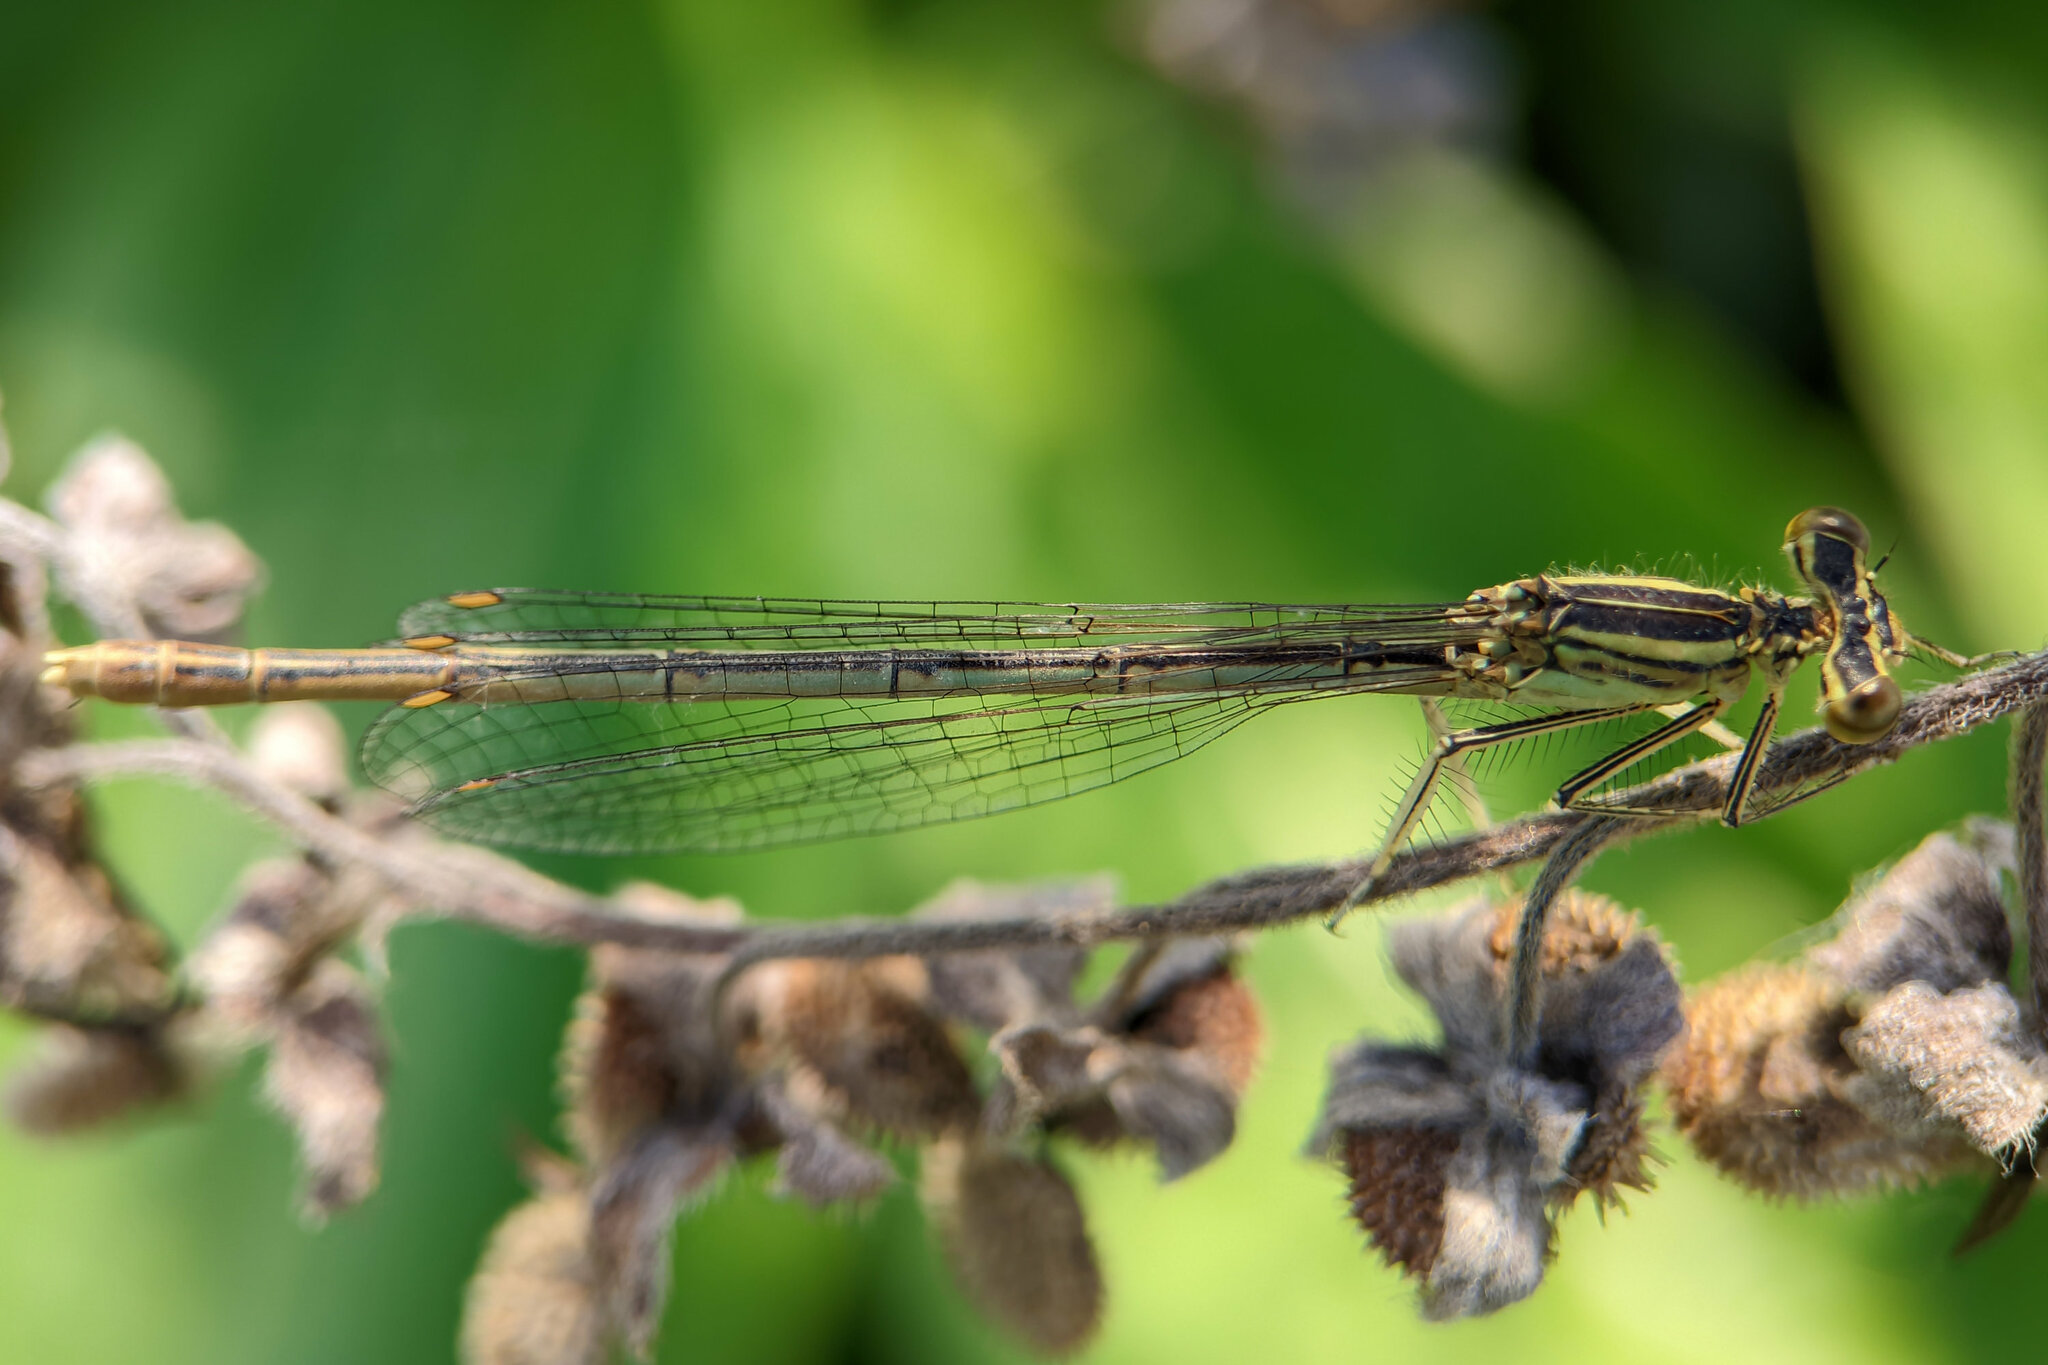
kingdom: Animalia
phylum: Arthropoda
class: Insecta
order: Odonata
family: Platycnemididae
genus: Platycnemis
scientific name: Platycnemis pennipes
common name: White-legged damselfly
